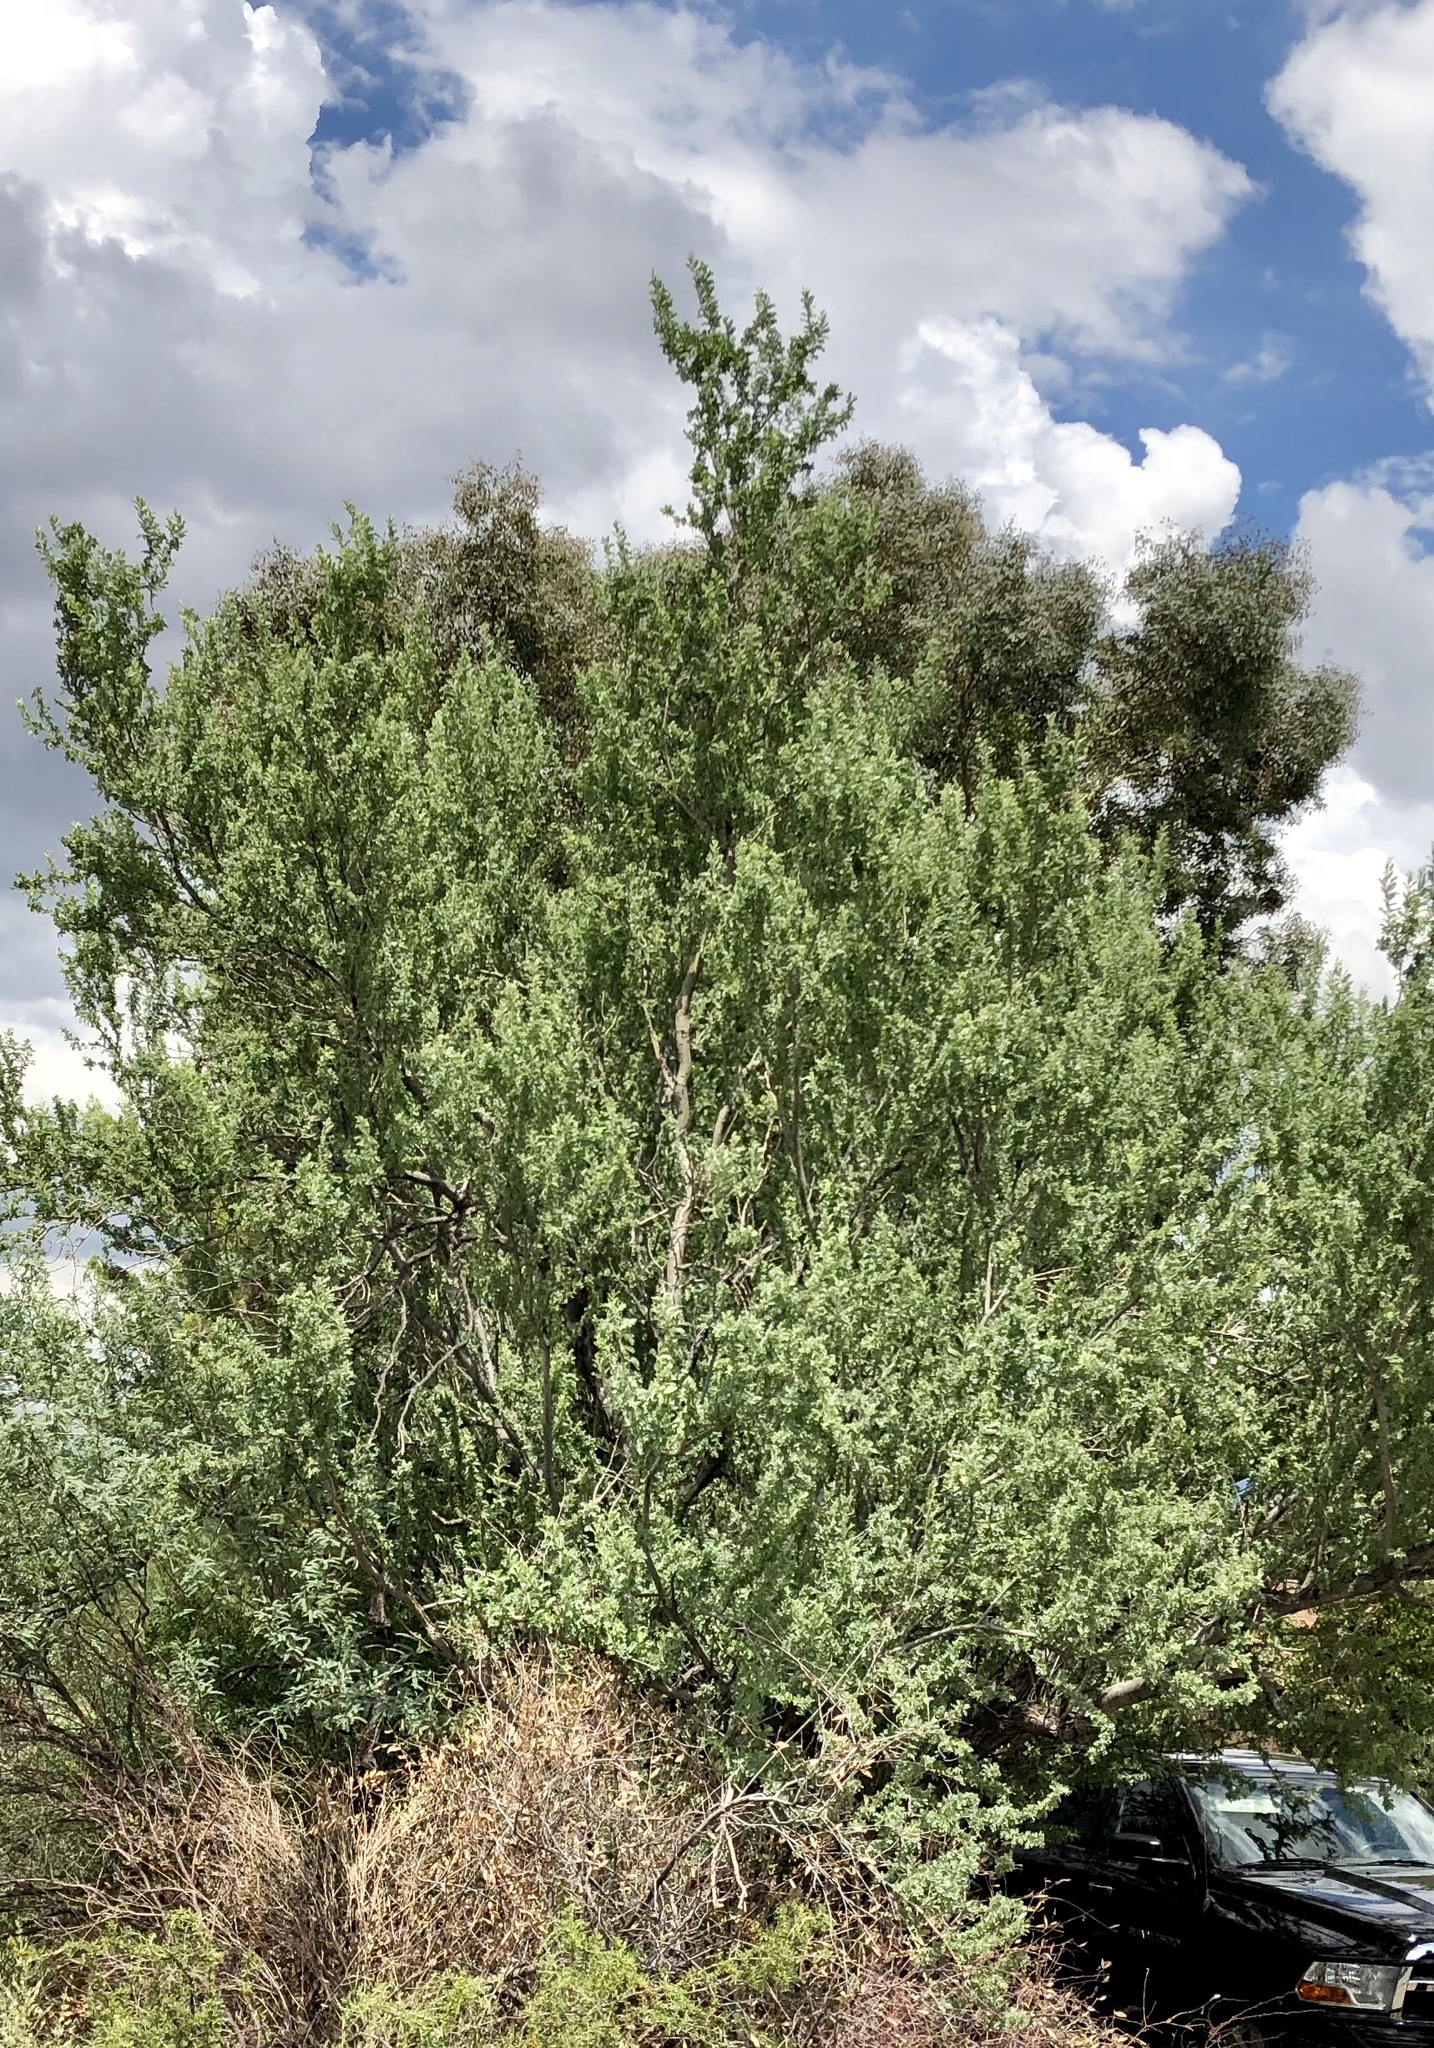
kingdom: Plantae
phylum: Tracheophyta
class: Magnoliopsida
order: Fabales
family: Fabaceae
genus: Olneya
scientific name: Olneya tesota
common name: Desert ironwood
